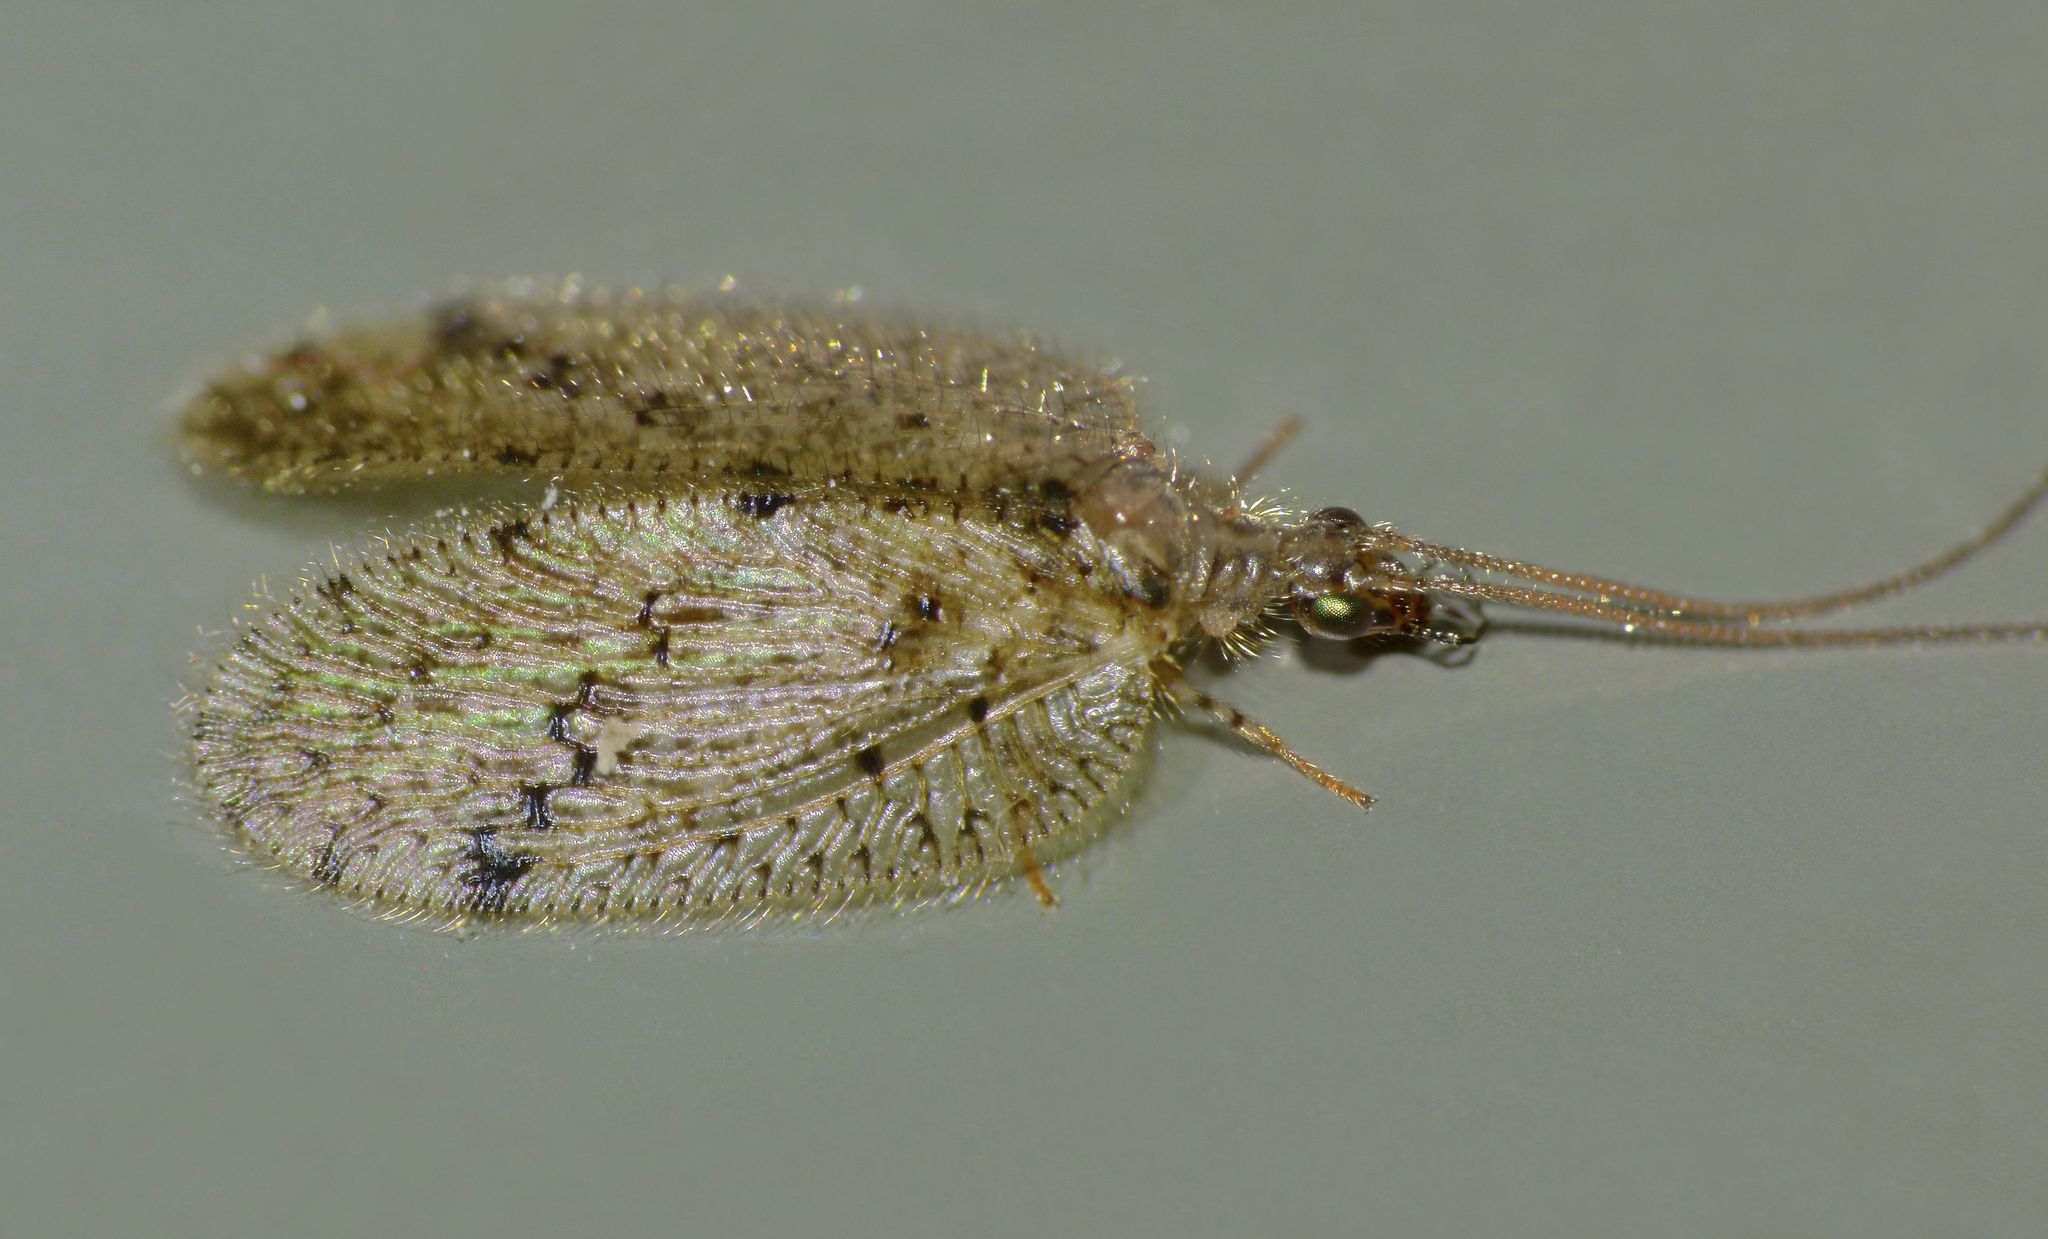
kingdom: Animalia
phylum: Arthropoda
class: Insecta
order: Neuroptera
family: Hemerobiidae
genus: Psectra
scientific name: Psectra nakaharai
